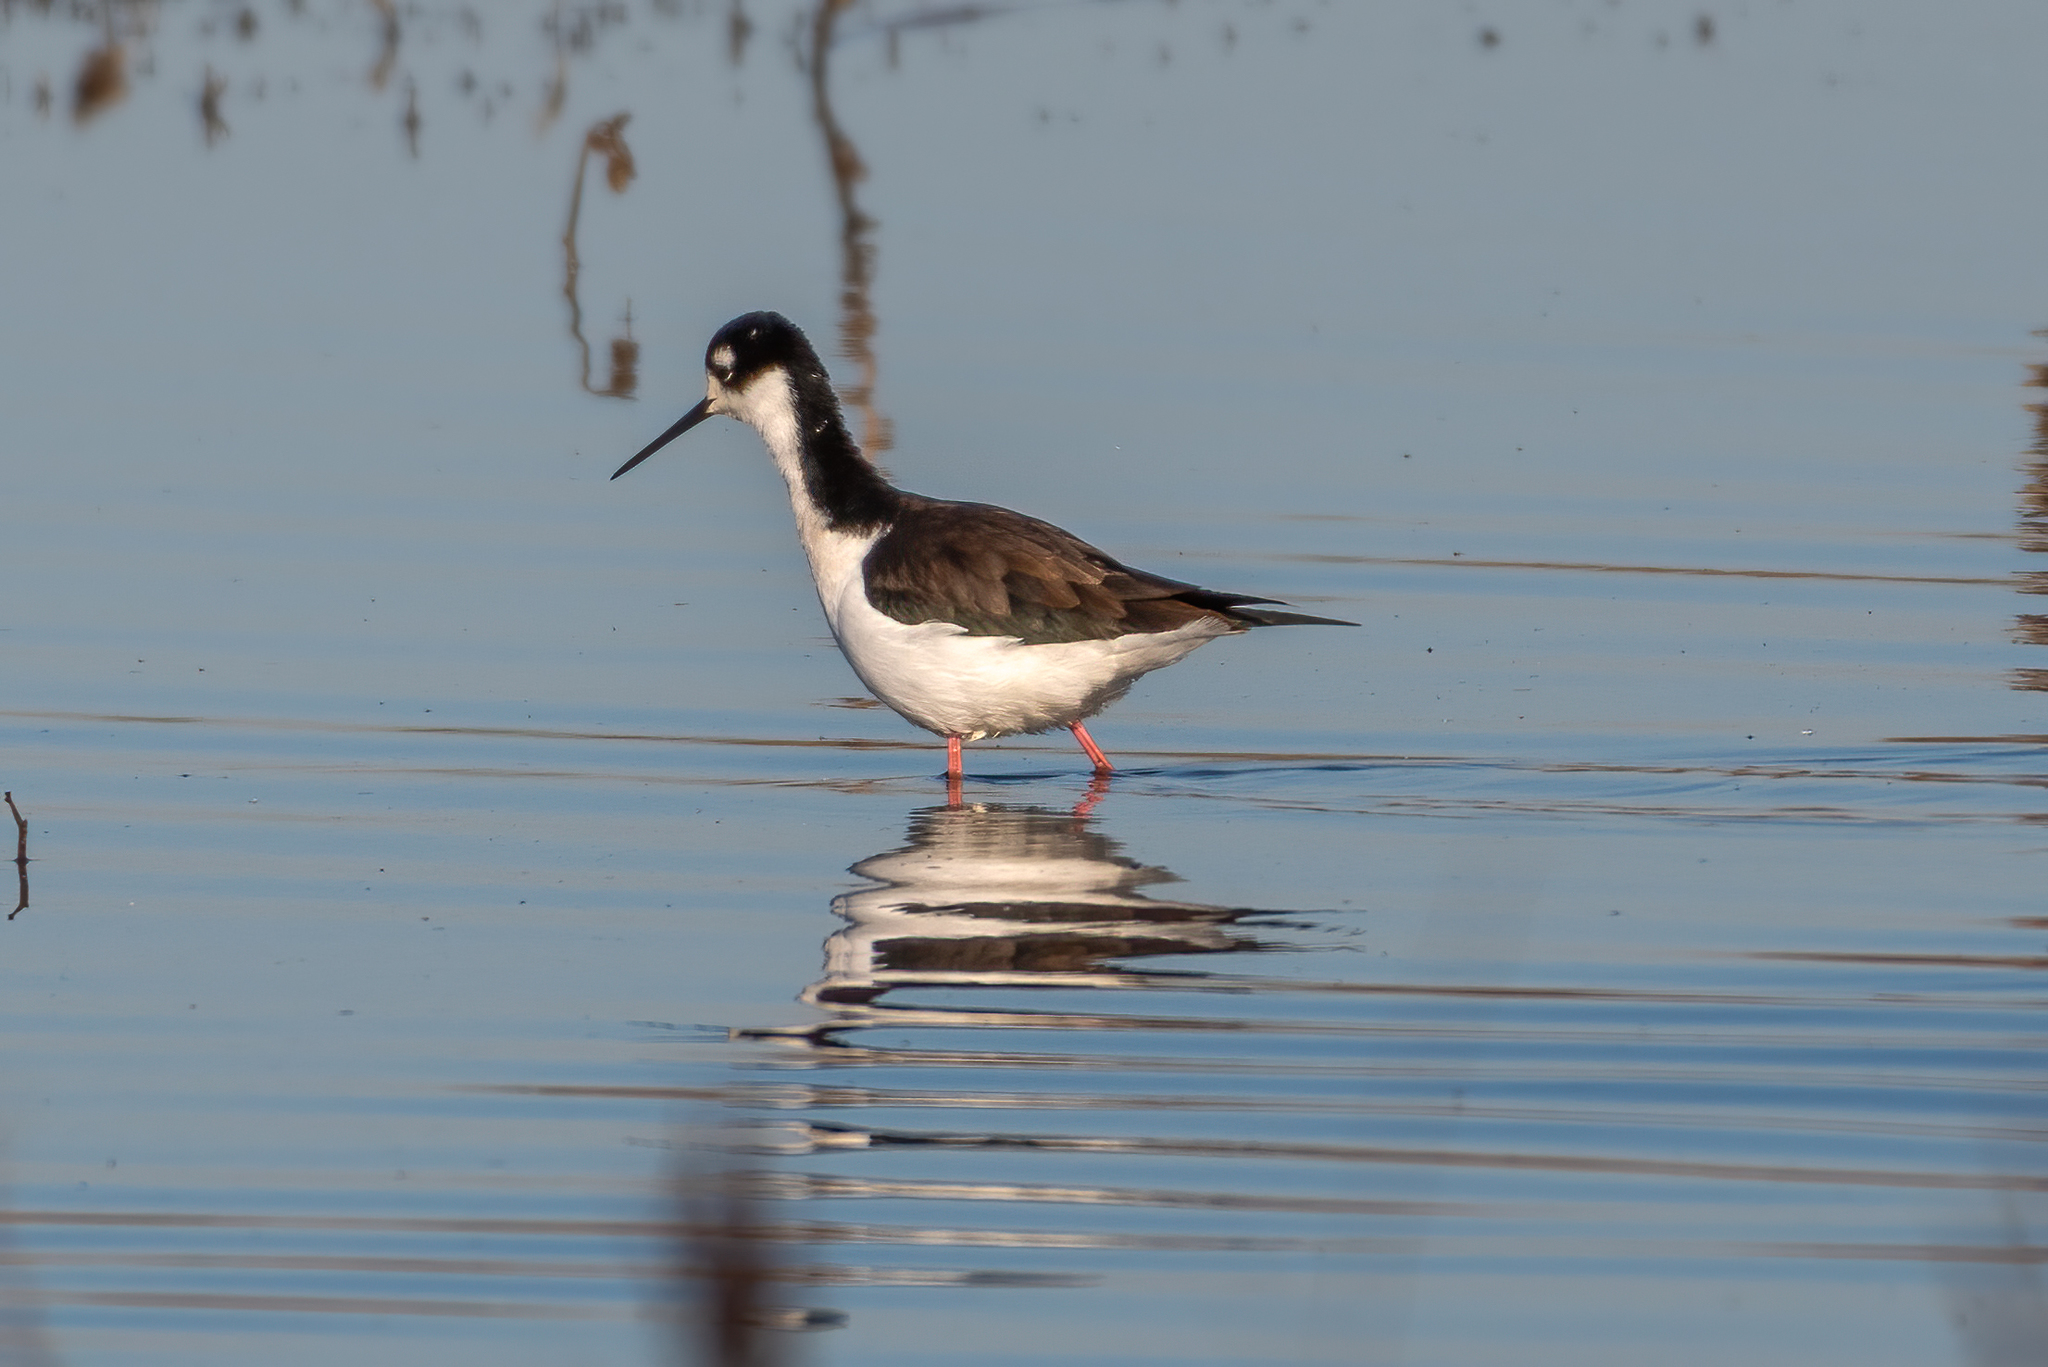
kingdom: Animalia
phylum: Chordata
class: Aves
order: Charadriiformes
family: Recurvirostridae
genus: Himantopus
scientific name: Himantopus mexicanus
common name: Black-necked stilt
